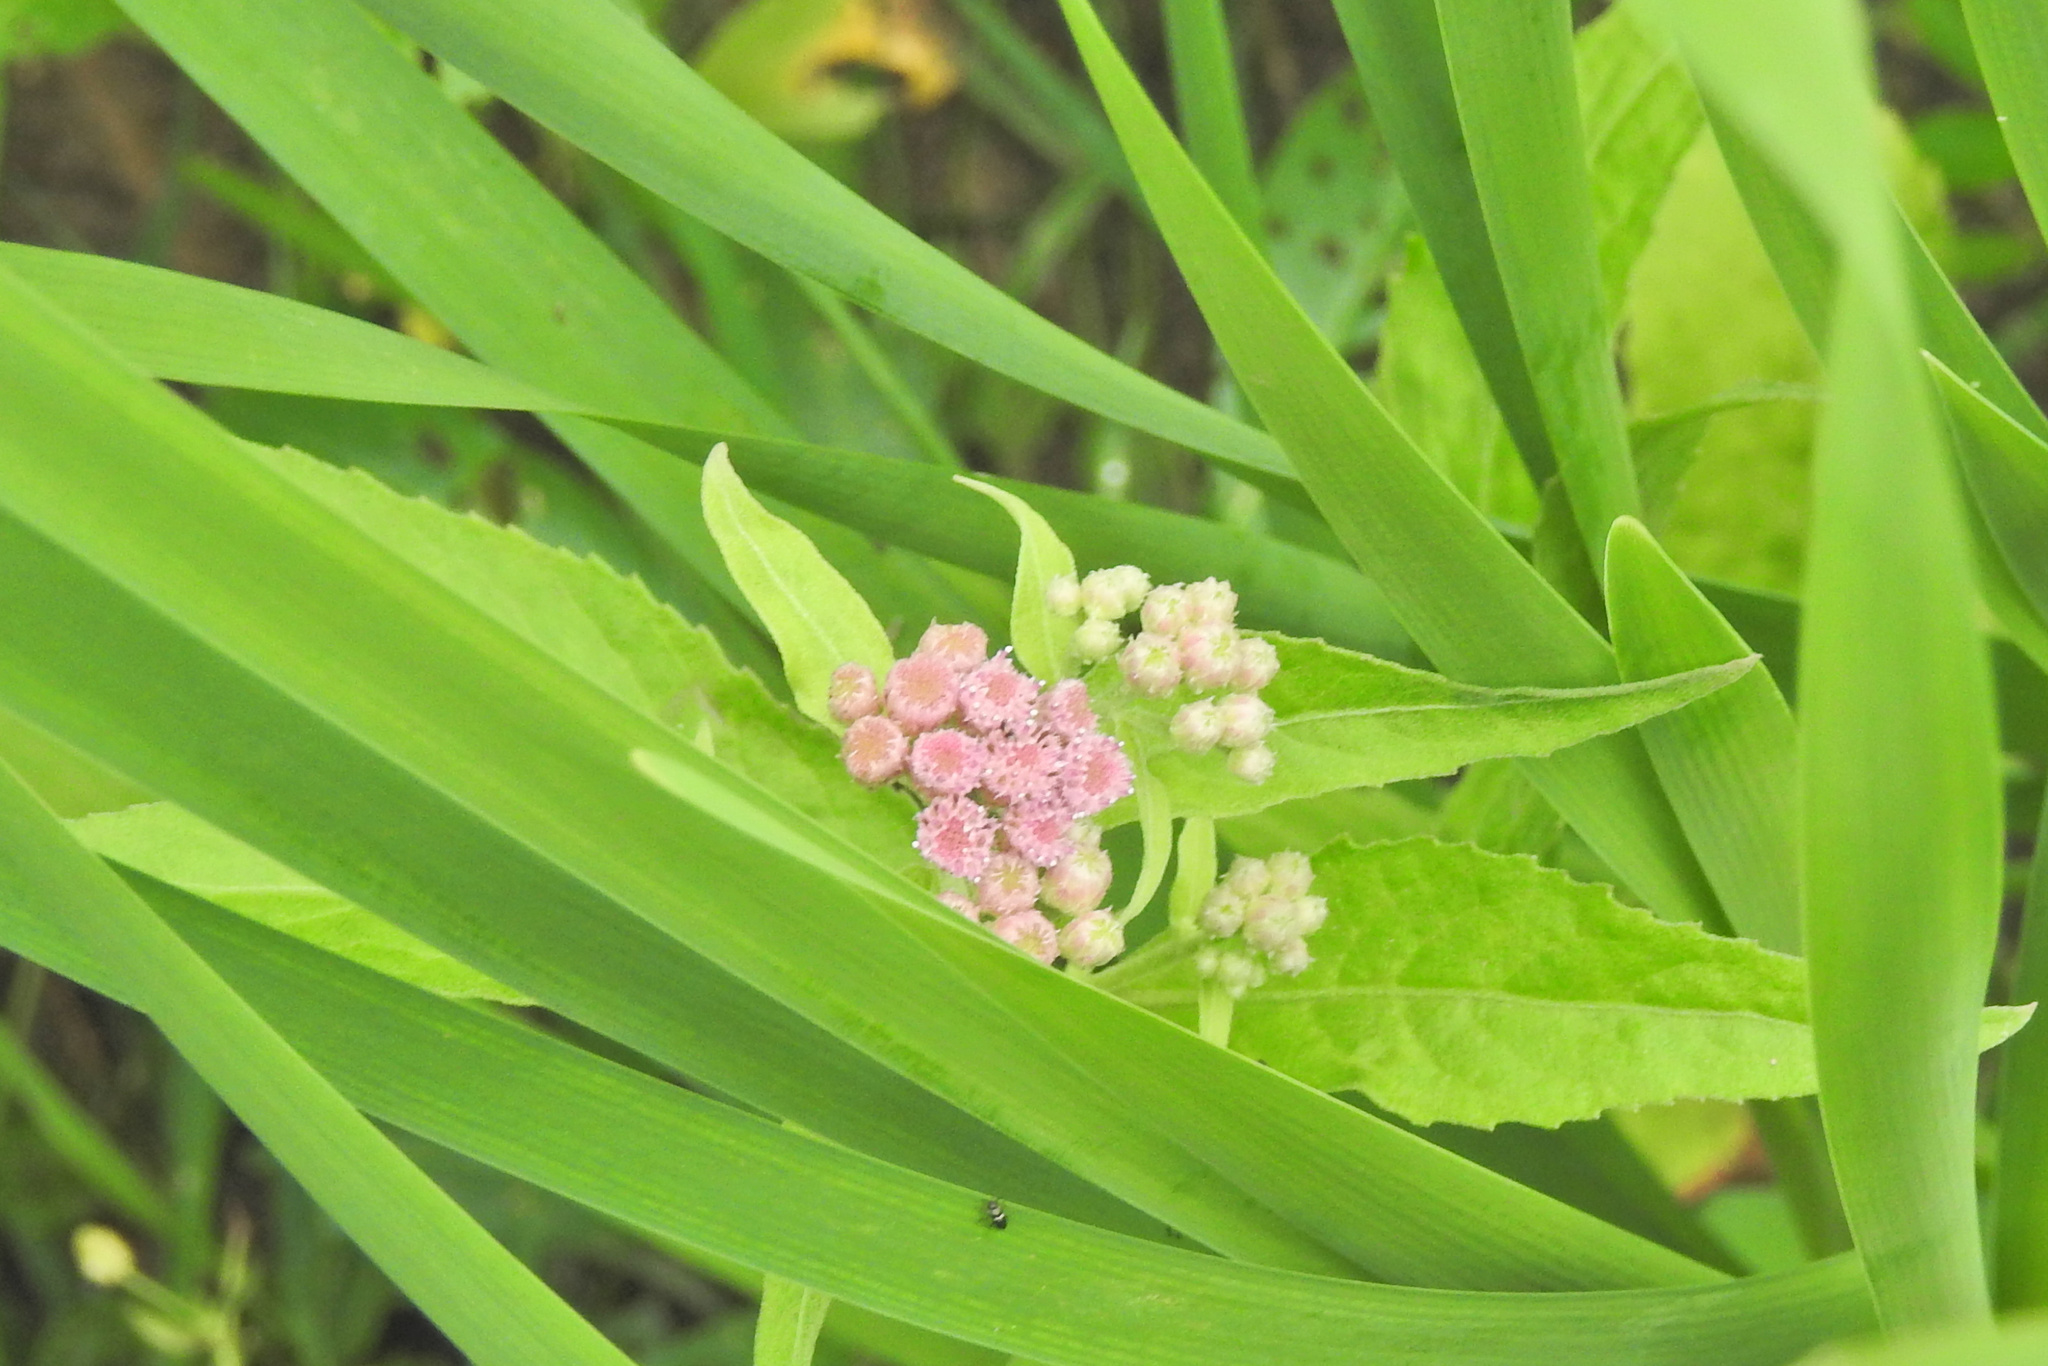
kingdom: Plantae
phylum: Tracheophyta
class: Magnoliopsida
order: Asterales
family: Asteraceae
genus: Pluchea
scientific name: Pluchea odorata
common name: Saltmarsh fleabane
